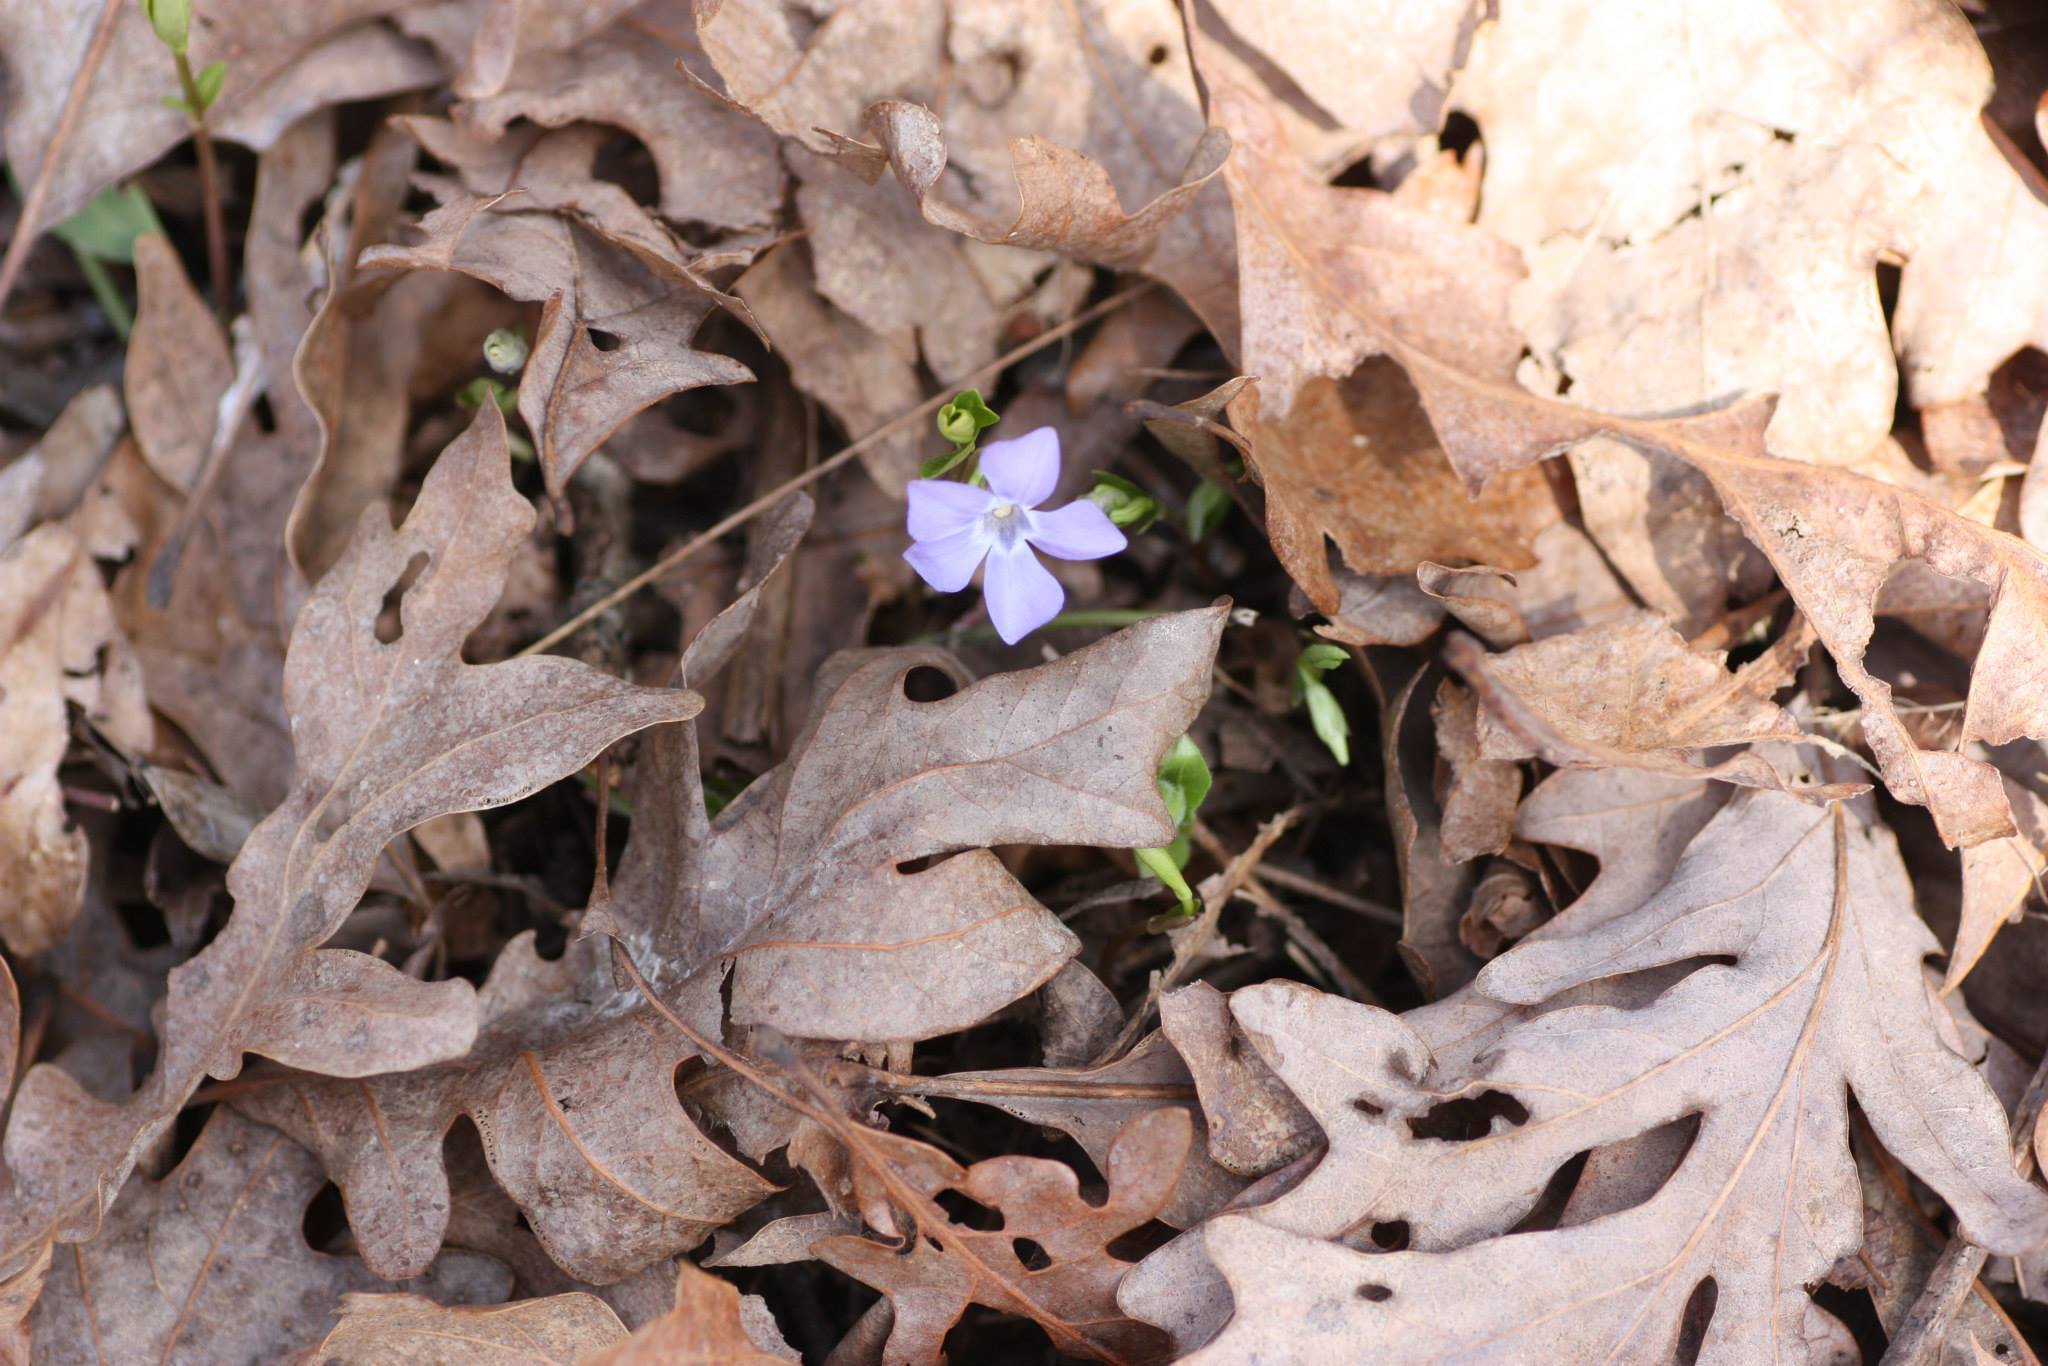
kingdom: Plantae
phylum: Tracheophyta
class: Magnoliopsida
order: Gentianales
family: Apocynaceae
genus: Vinca
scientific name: Vinca minor
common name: Lesser periwinkle
